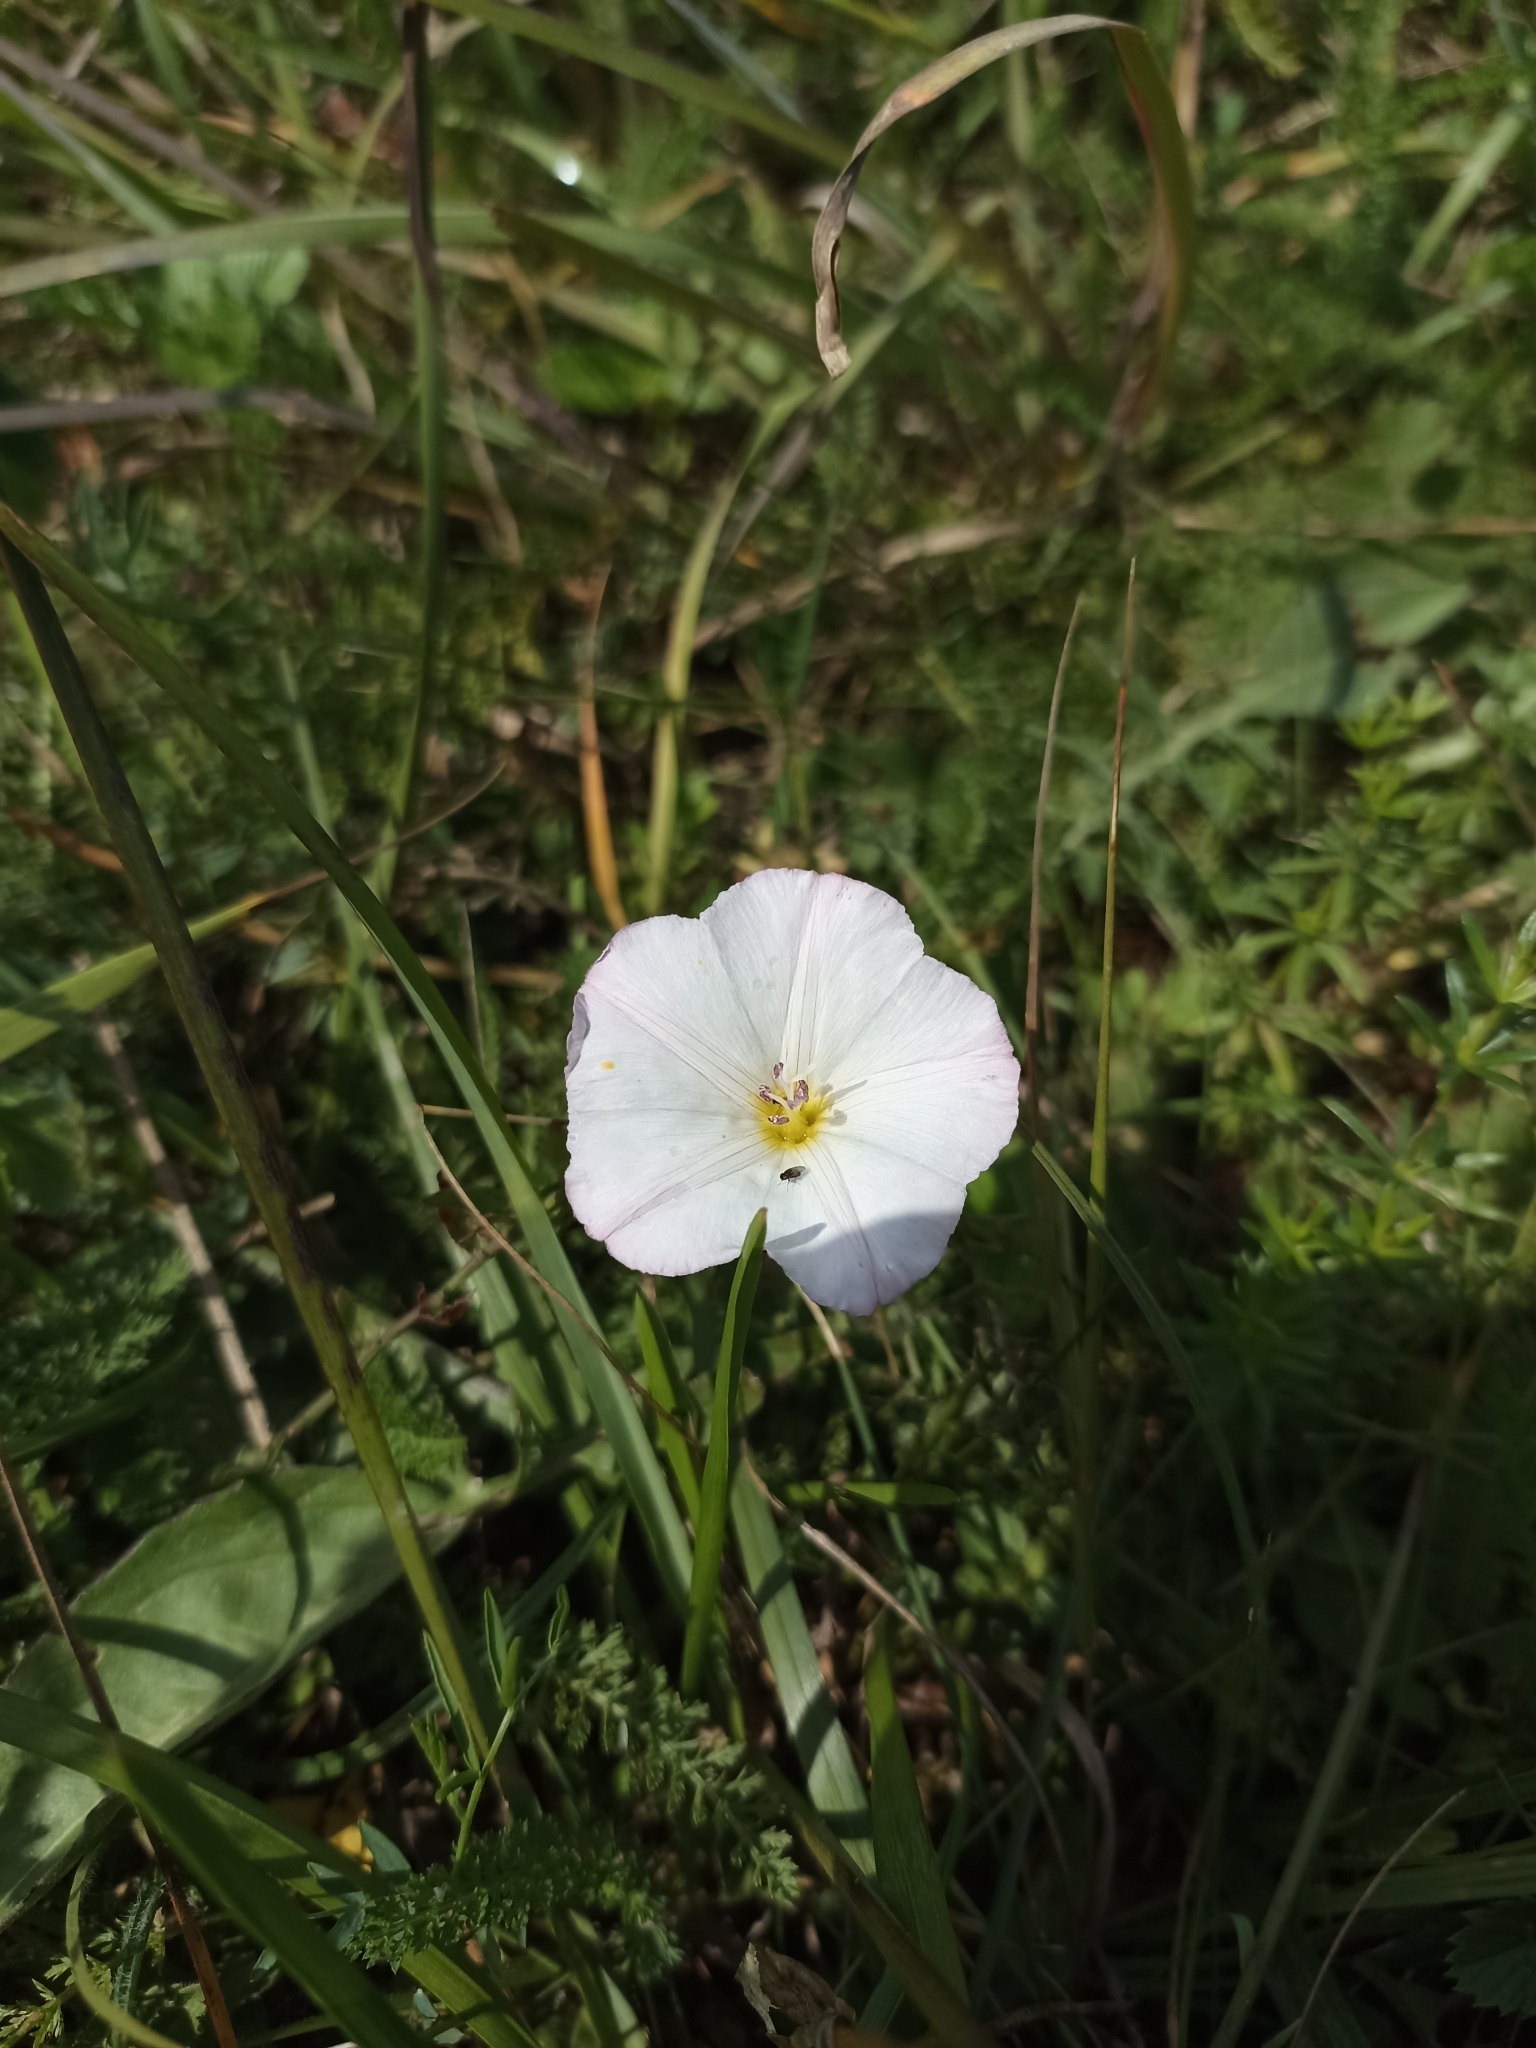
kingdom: Plantae
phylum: Tracheophyta
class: Magnoliopsida
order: Solanales
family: Convolvulaceae
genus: Convolvulus
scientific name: Convolvulus arvensis
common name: Field bindweed
